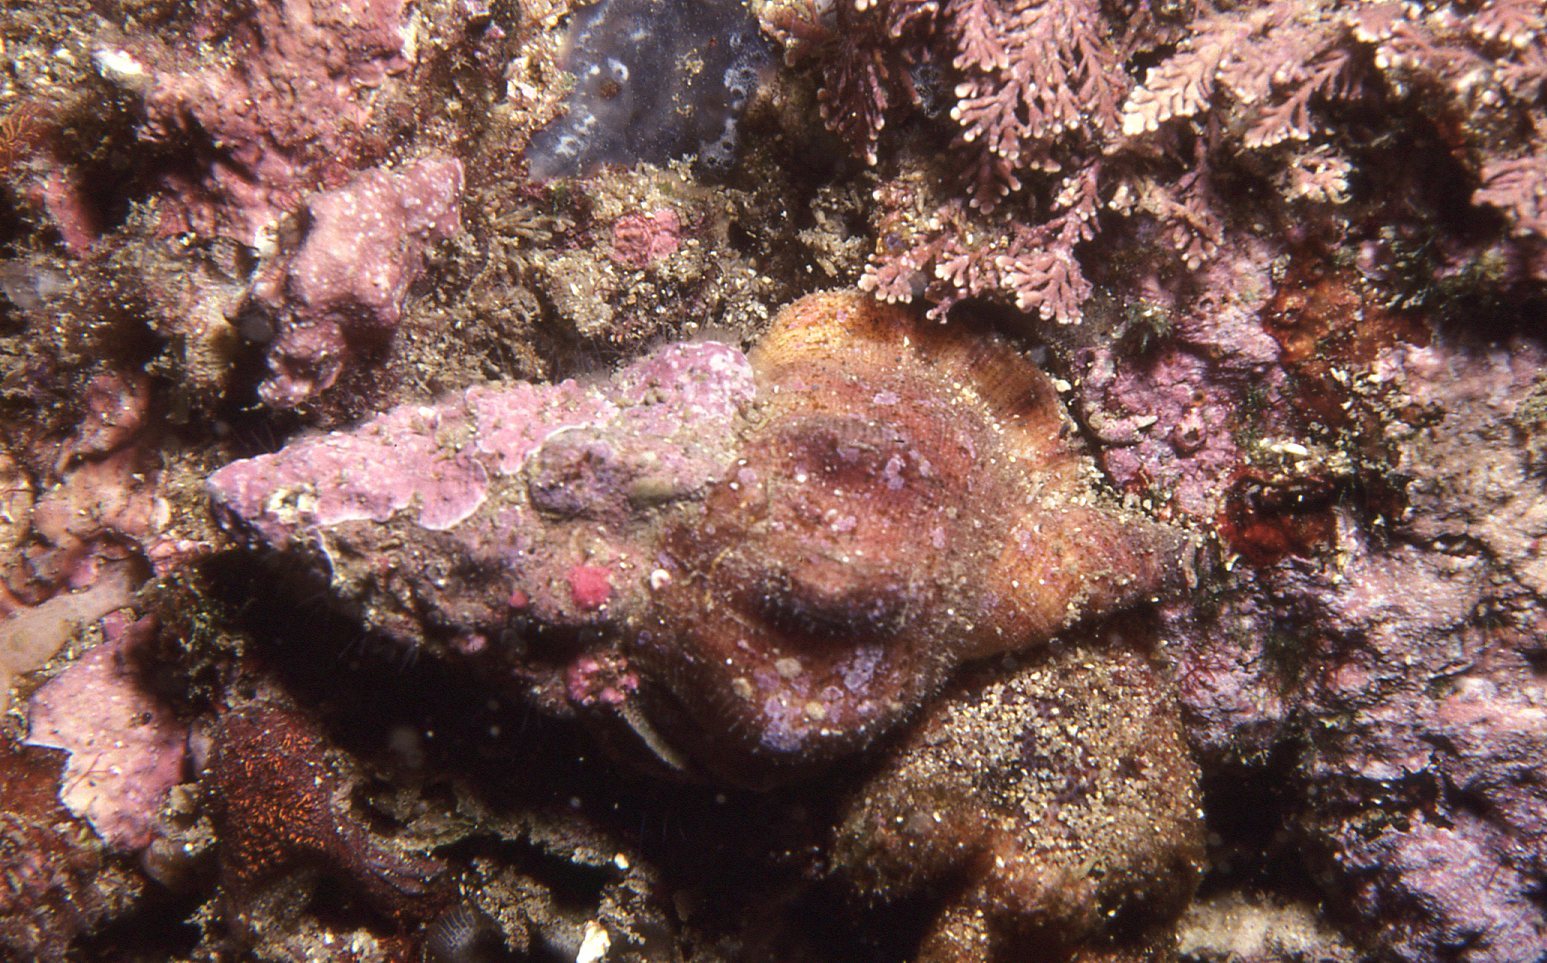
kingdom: Animalia
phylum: Mollusca
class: Gastropoda
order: Littorinimorpha
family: Cymatiidae
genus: Austrosassia
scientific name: Austrosassia parkinsonia
